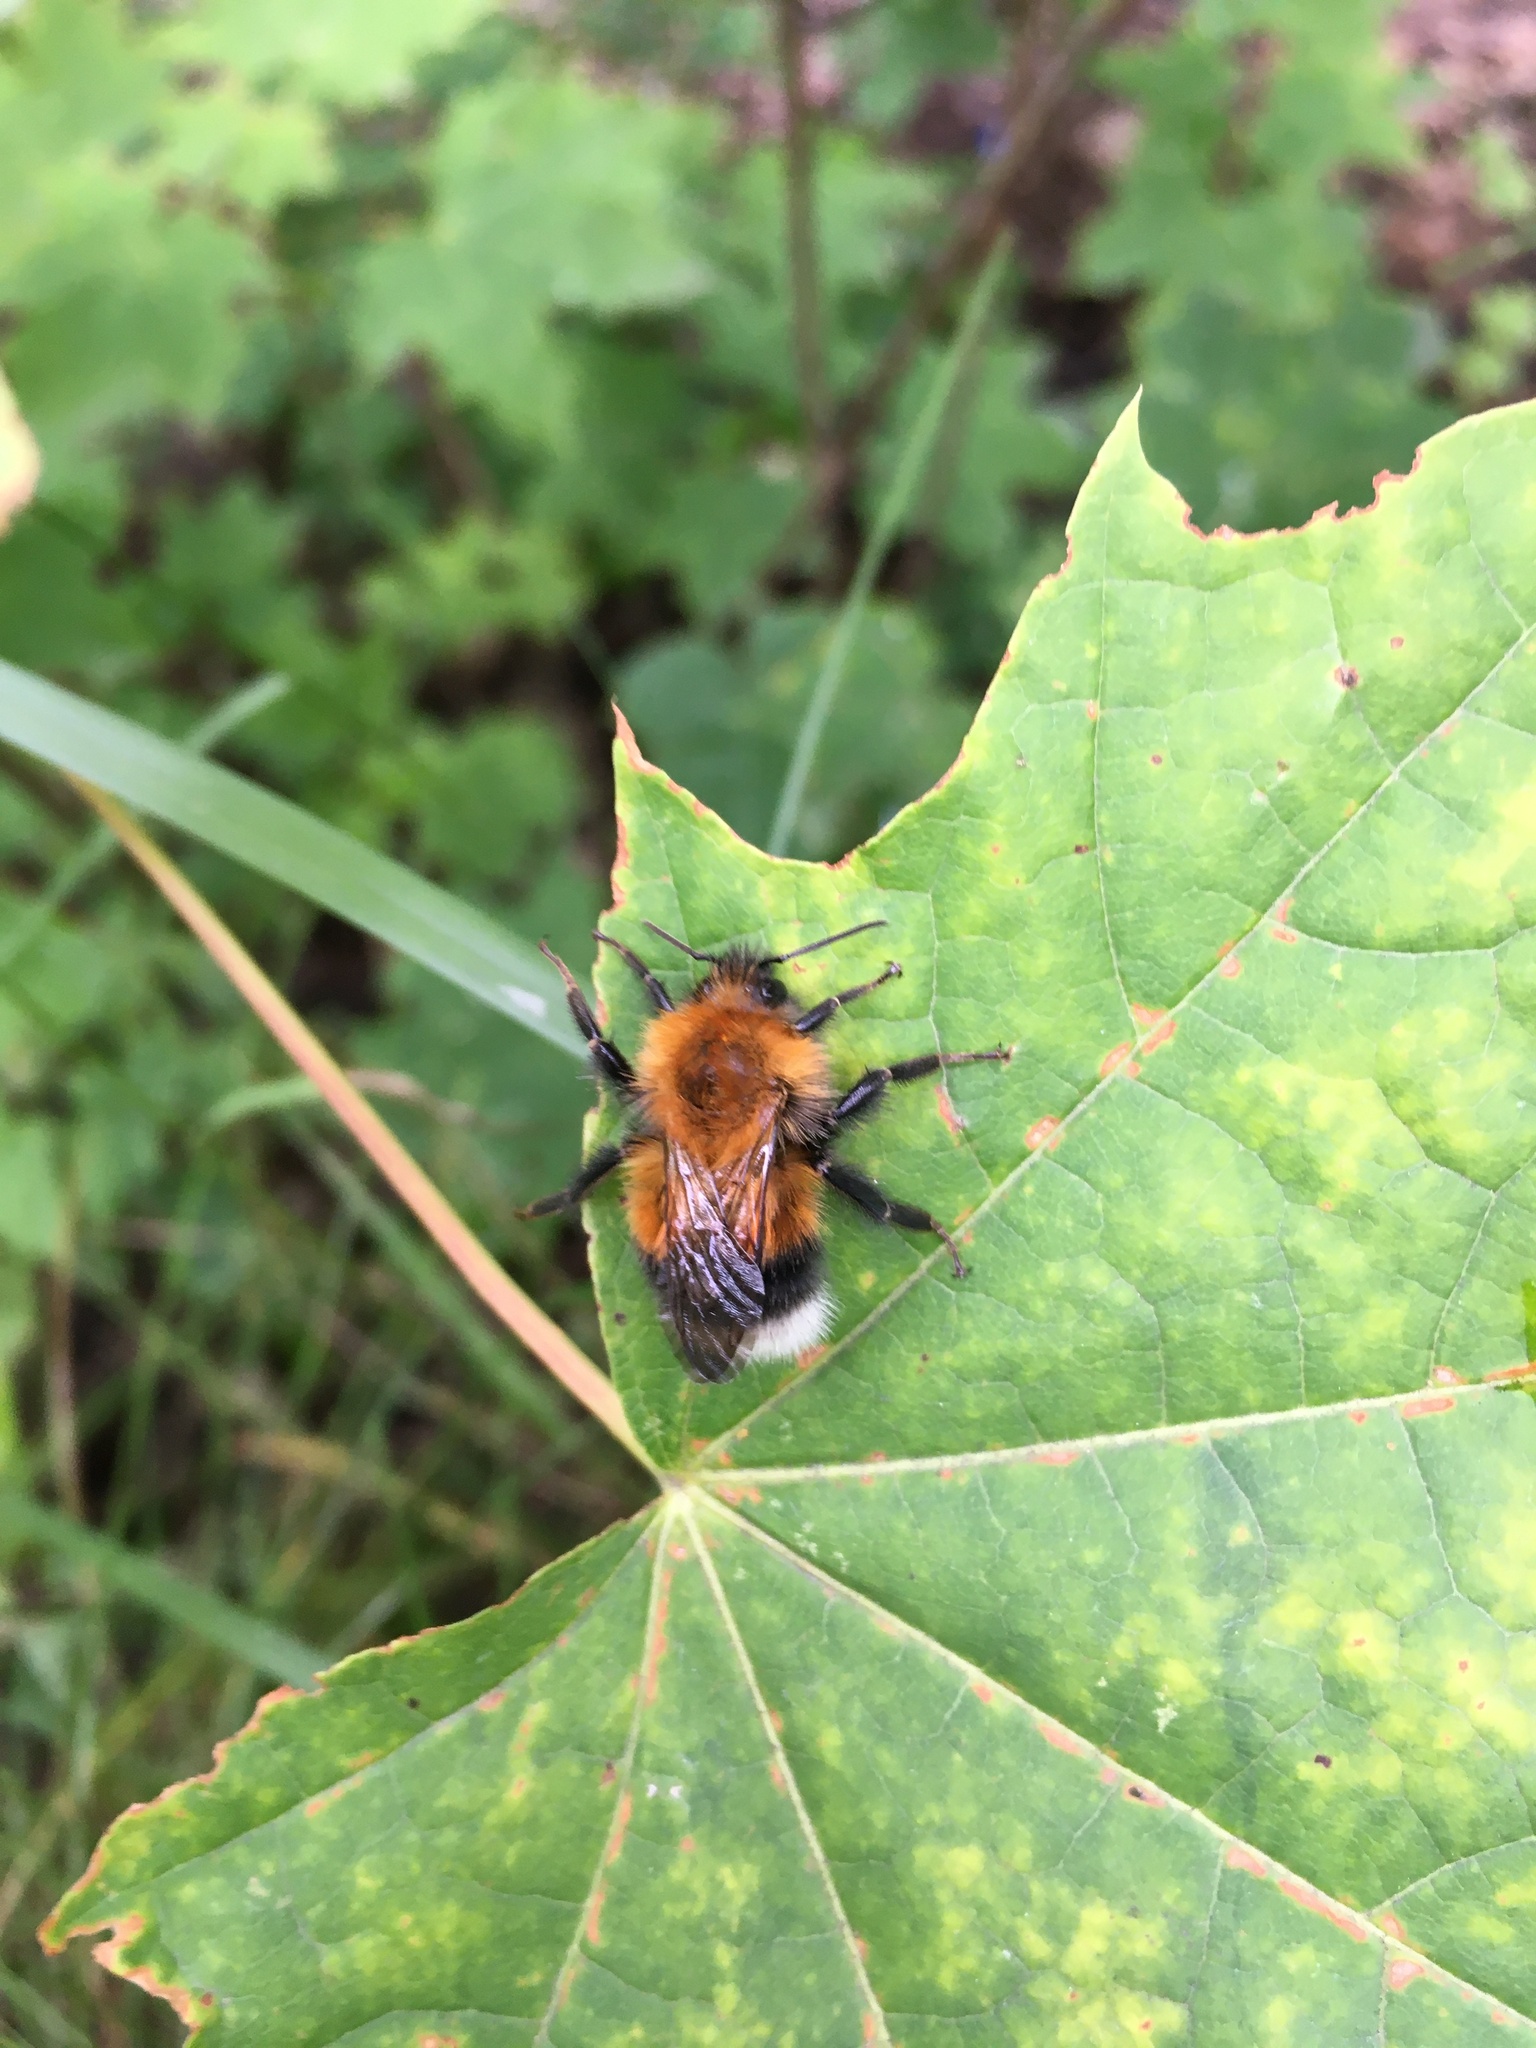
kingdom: Animalia
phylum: Arthropoda
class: Insecta
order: Hymenoptera
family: Apidae
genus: Bombus
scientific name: Bombus hypnorum
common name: New garden bumblebee
